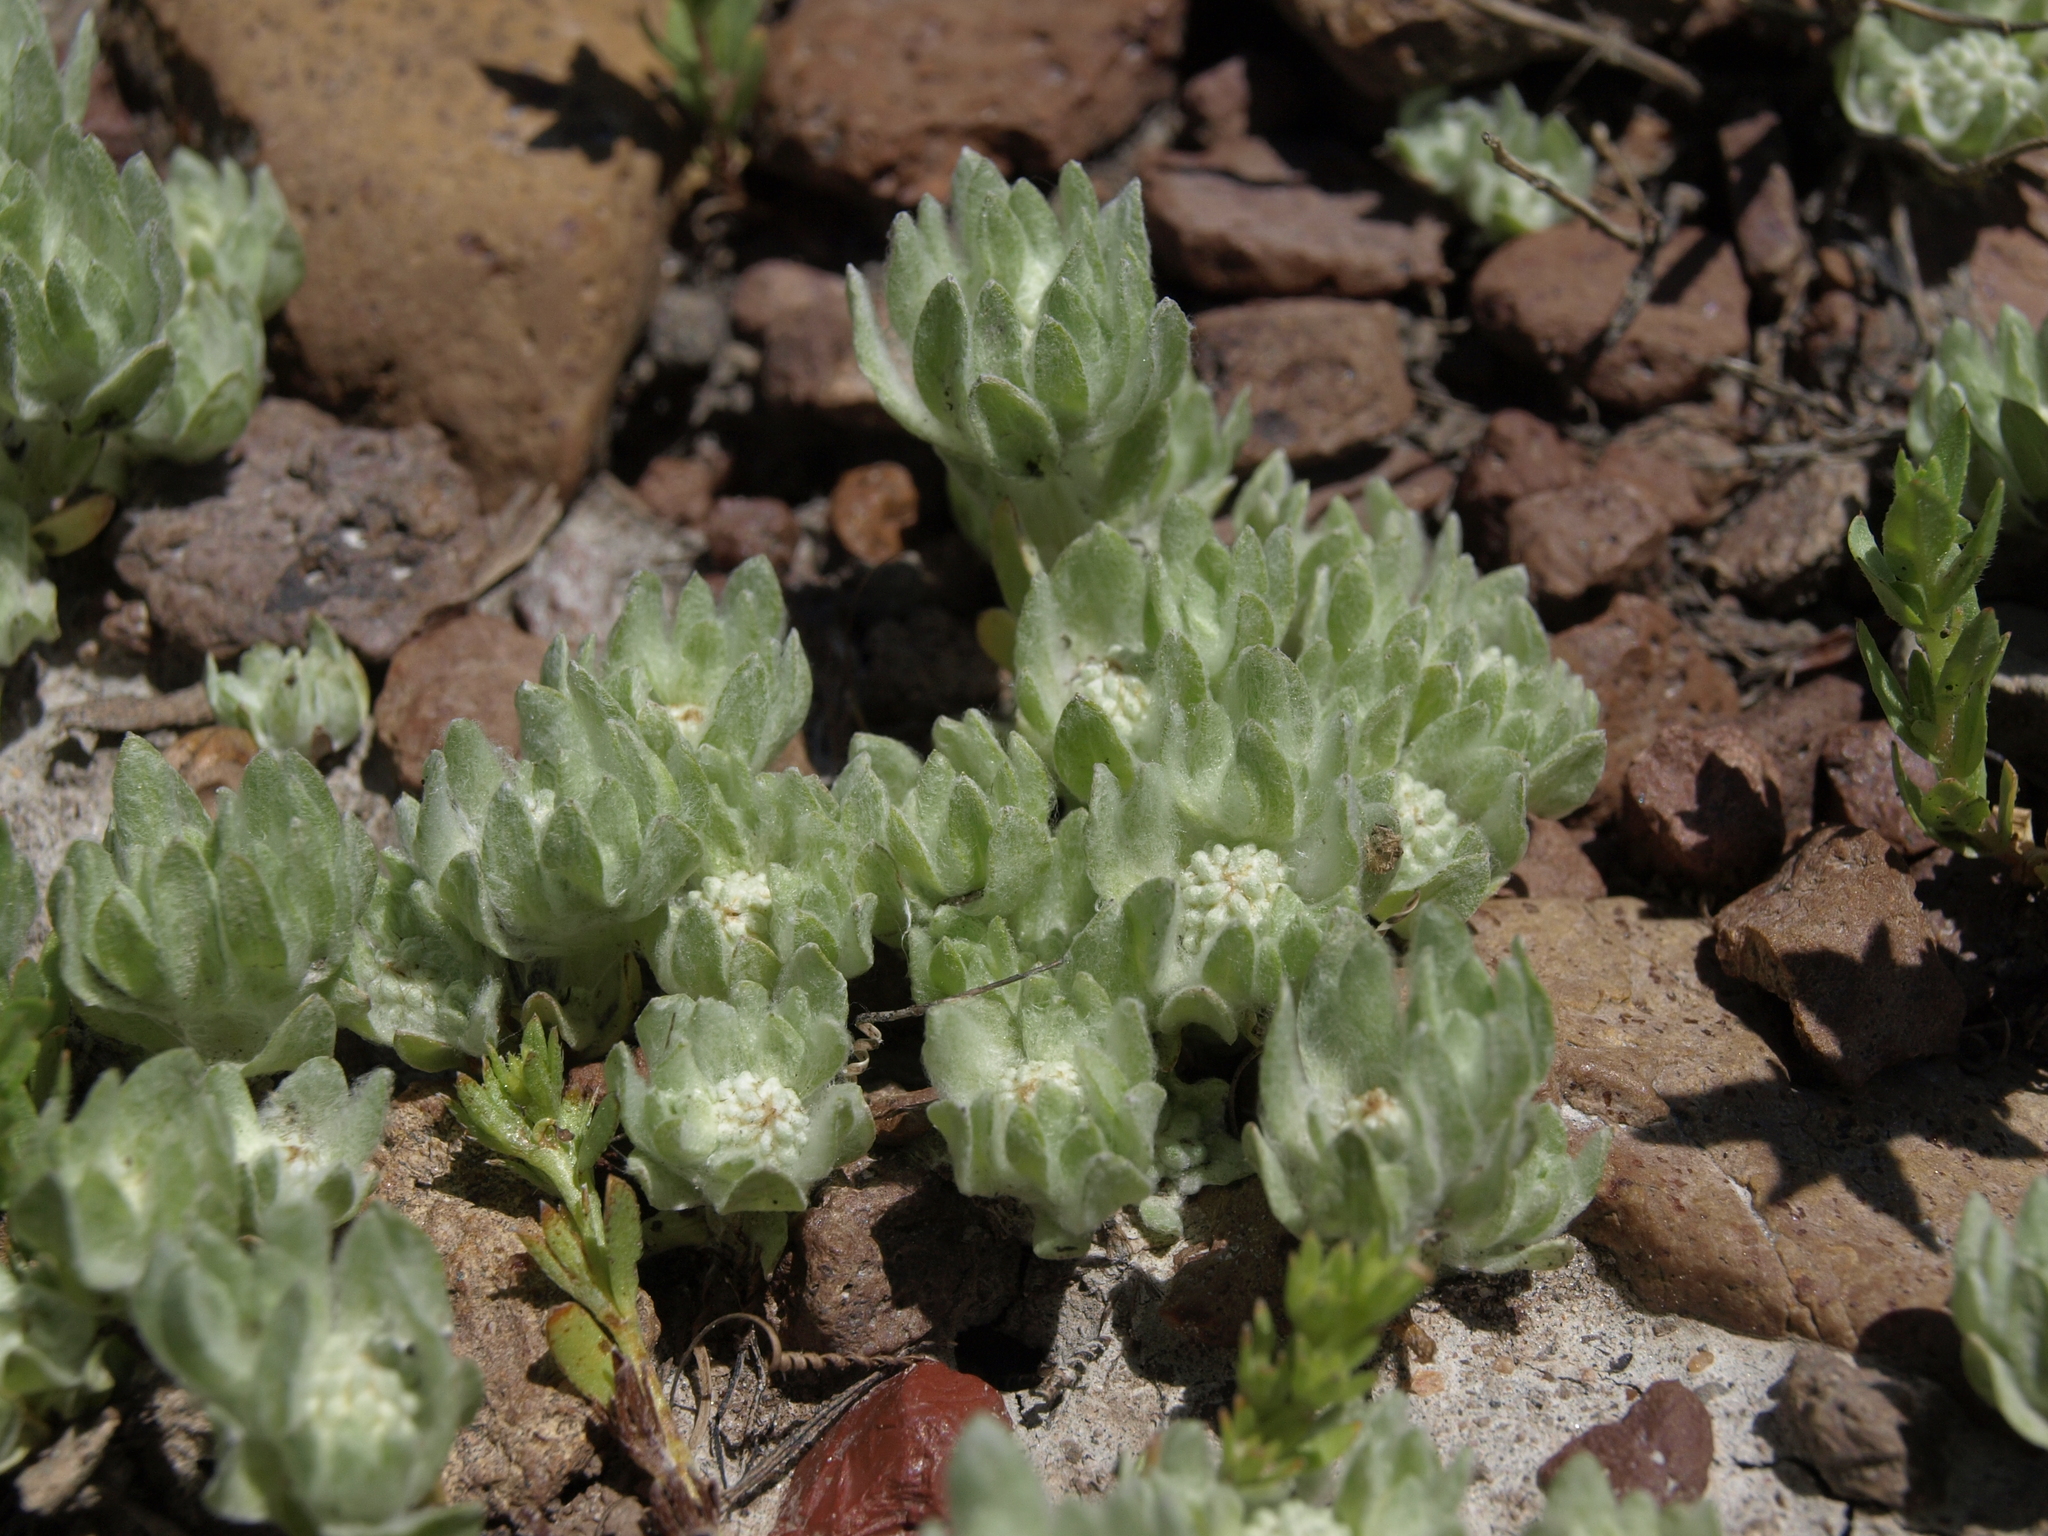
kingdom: Plantae
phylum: Tracheophyta
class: Magnoliopsida
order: Asterales
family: Asteraceae
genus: Psilocarphus
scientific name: Psilocarphus brevissimus
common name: Dwarf woollyheads
